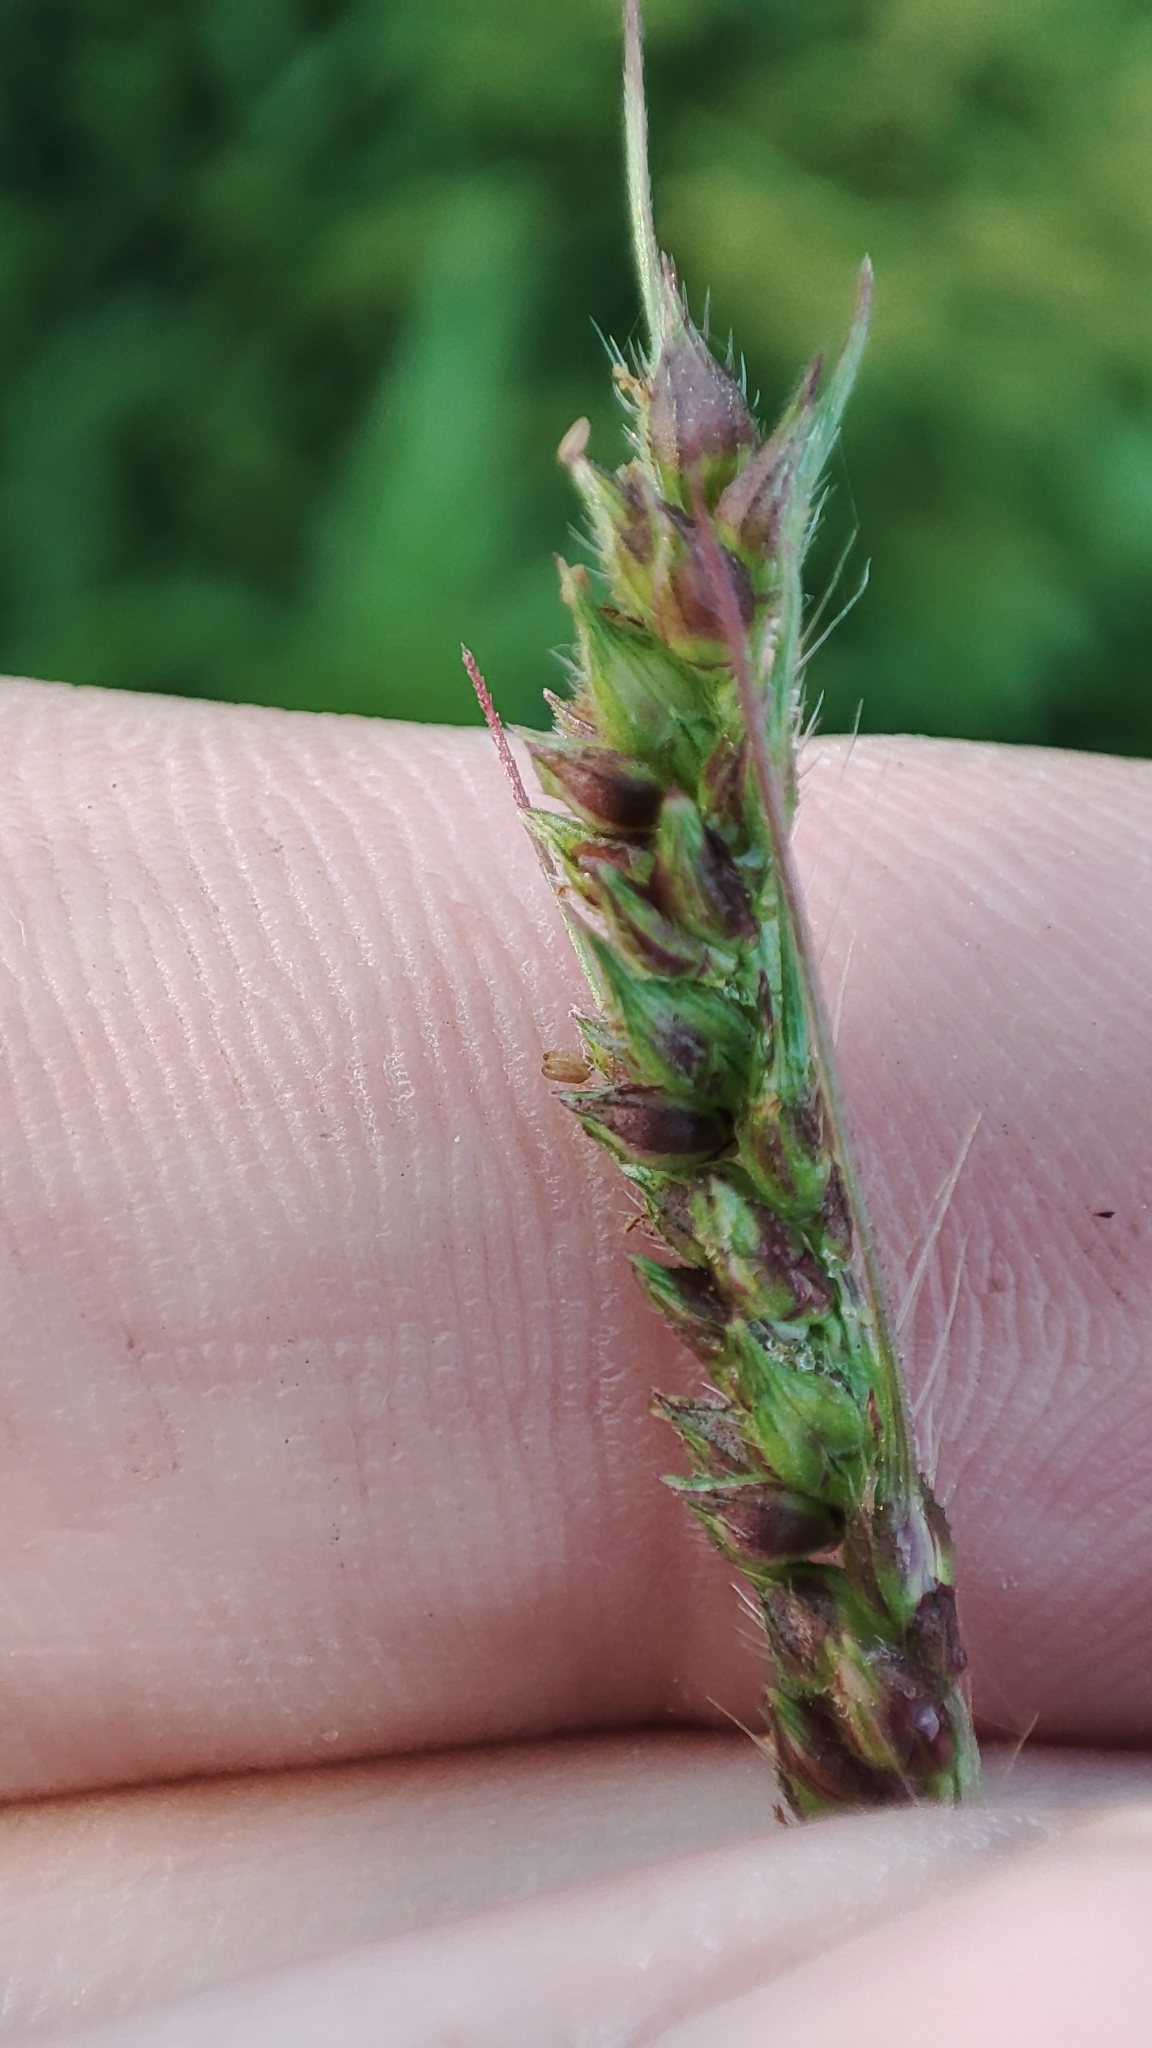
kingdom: Plantae
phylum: Tracheophyta
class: Liliopsida
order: Poales
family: Poaceae
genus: Echinochloa
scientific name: Echinochloa crus-galli
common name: Cockspur
